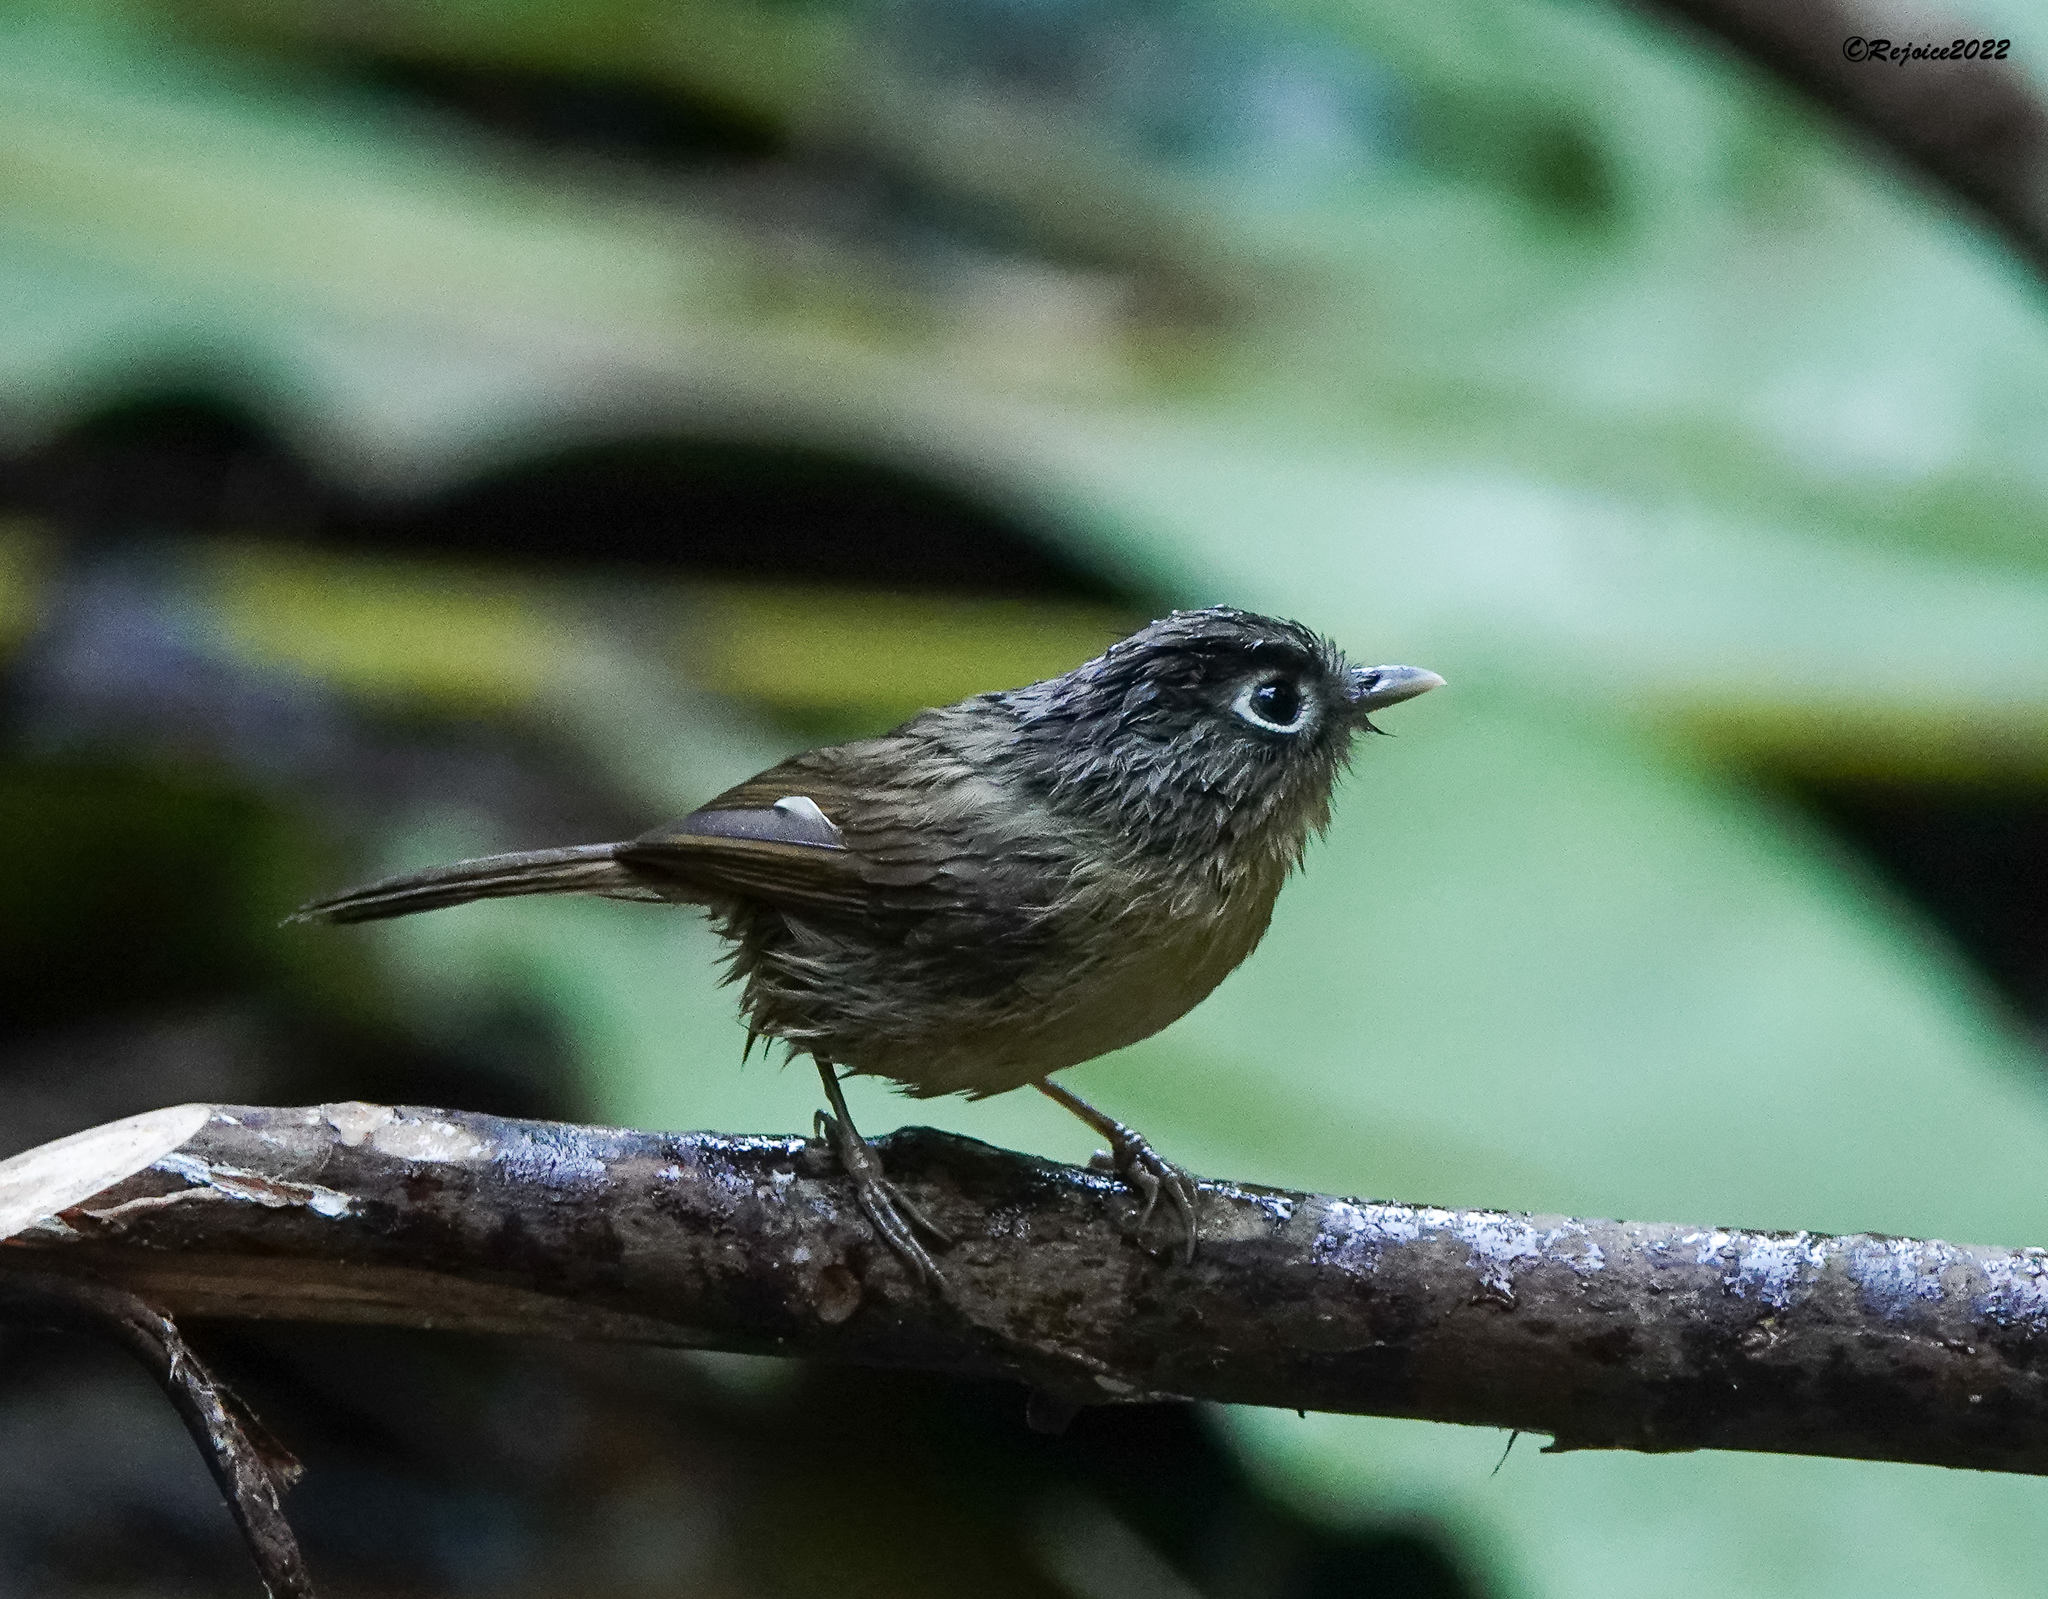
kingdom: Animalia
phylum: Chordata
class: Aves
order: Passeriformes
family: Pellorneidae
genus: Alcippe
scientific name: Alcippe nipalensis
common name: Nepal fulvetta
